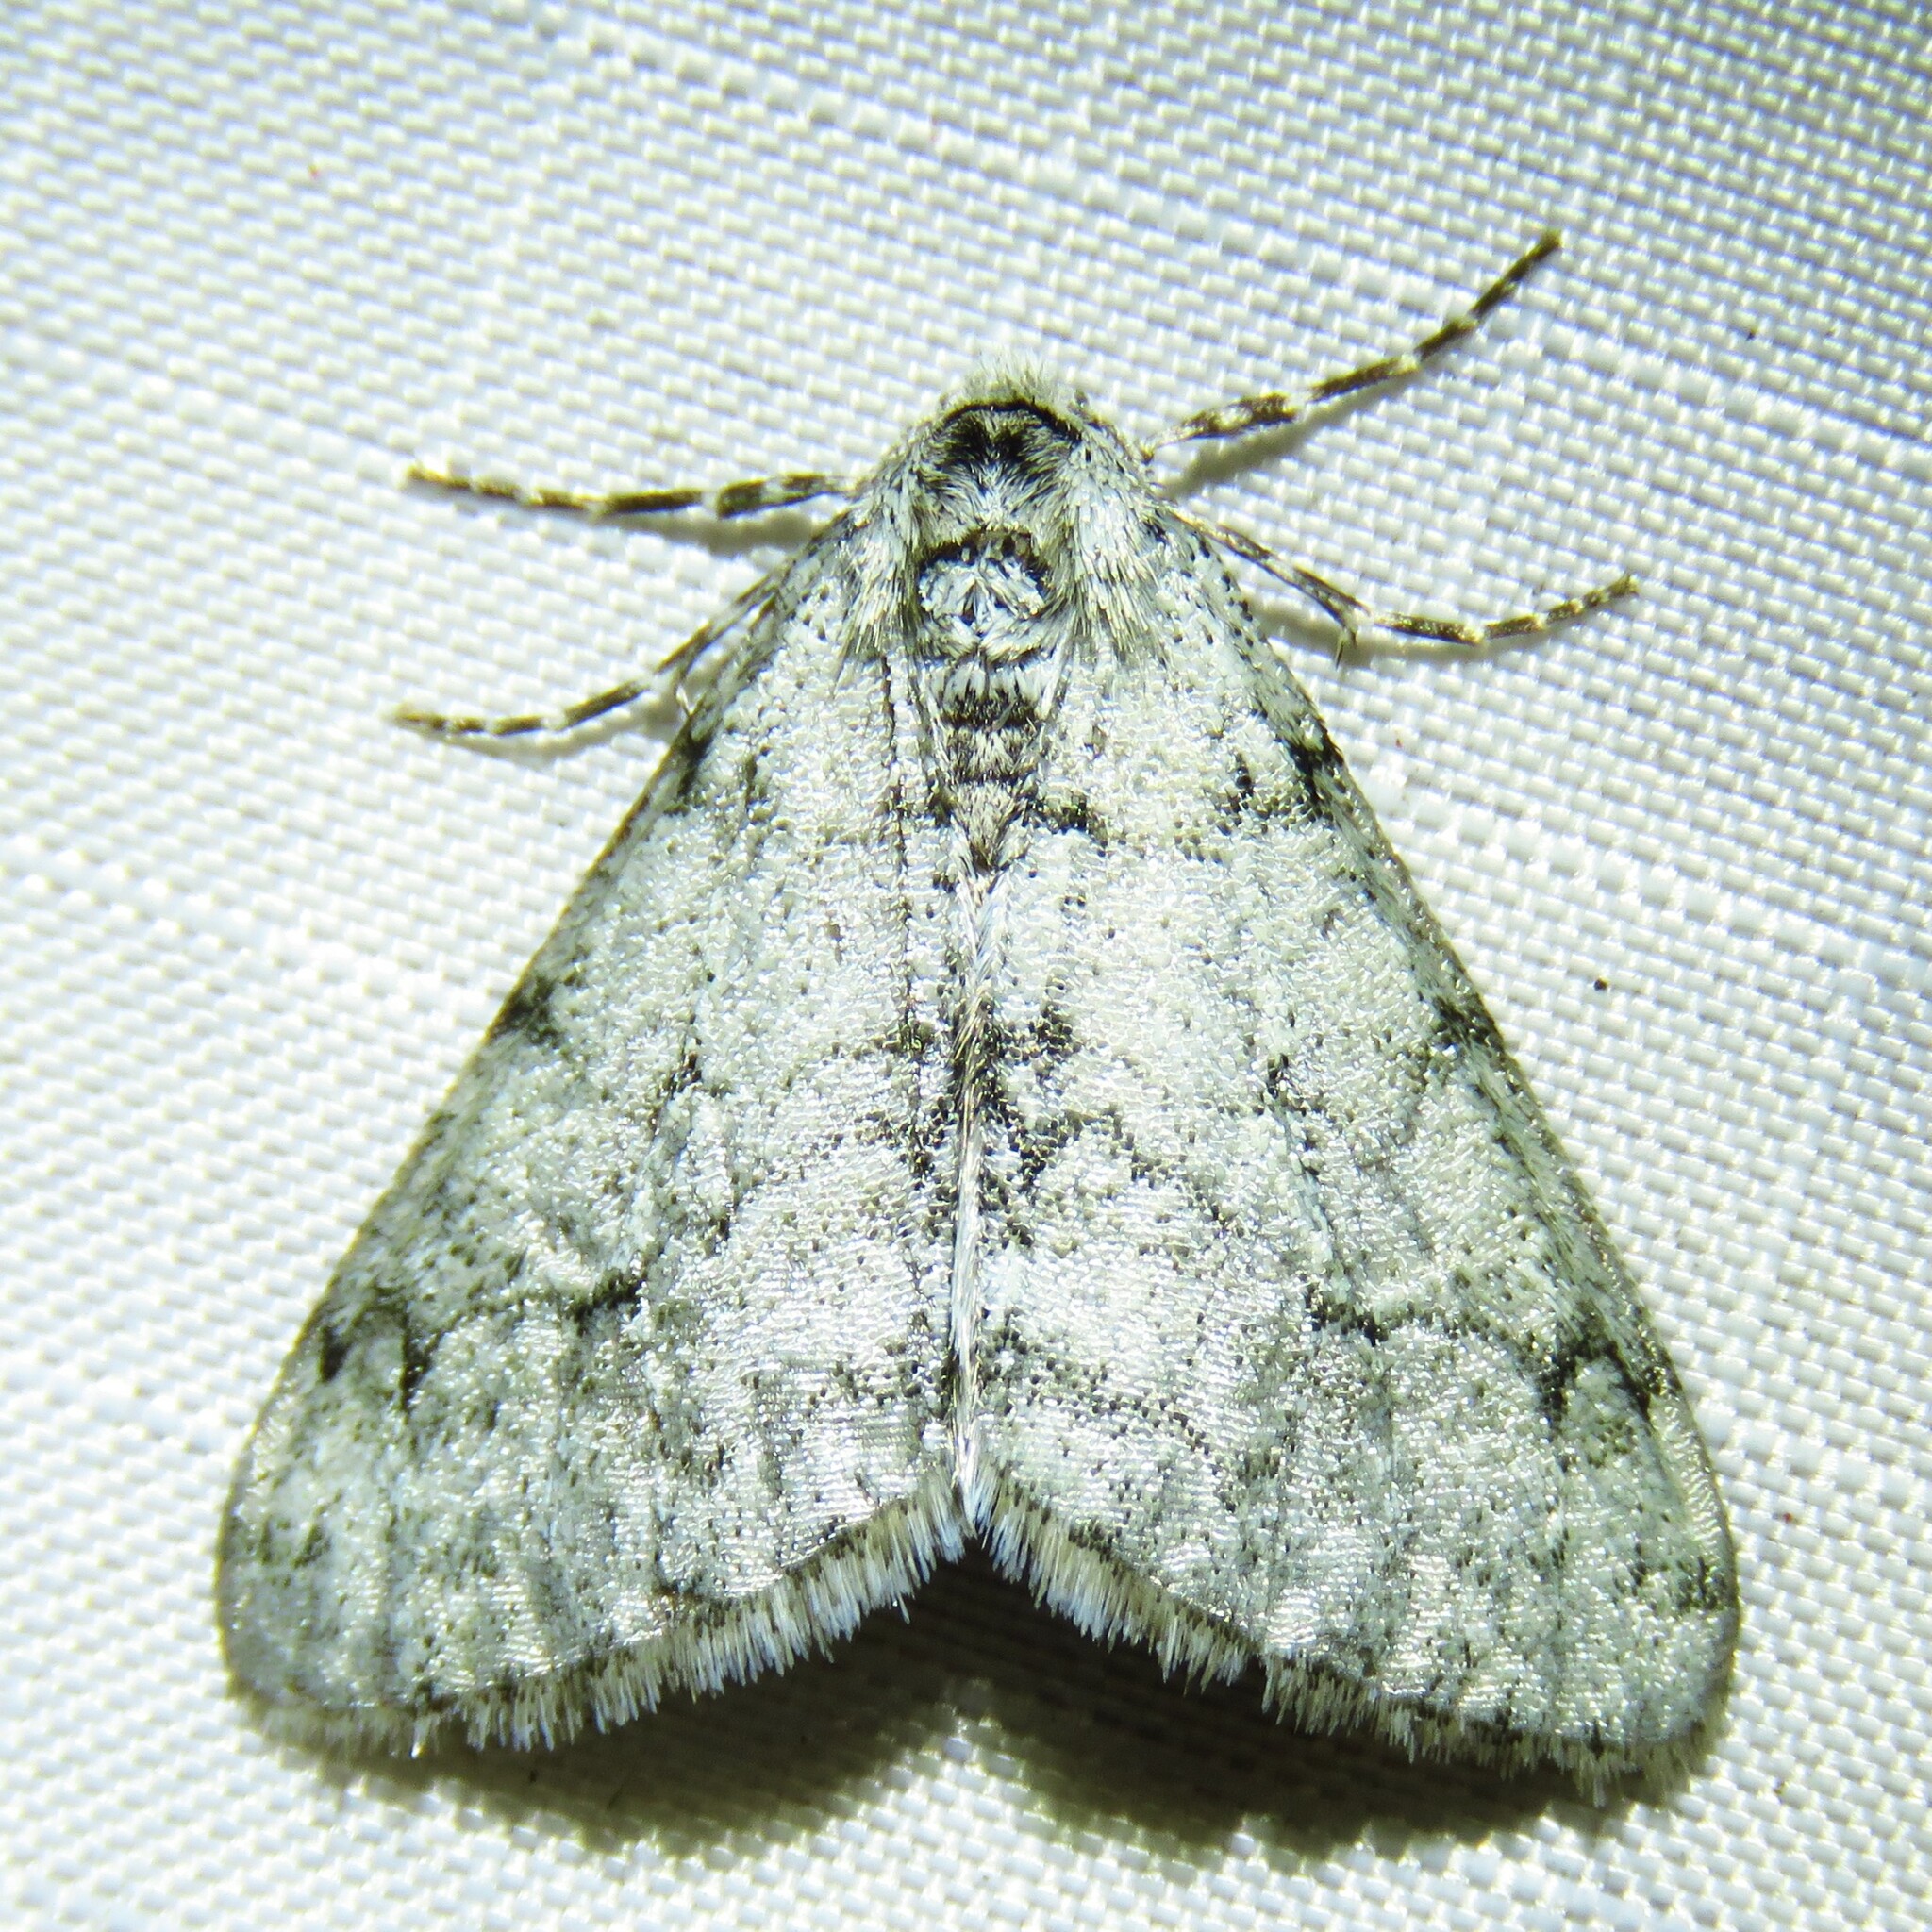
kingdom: Animalia
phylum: Arthropoda
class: Insecta
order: Lepidoptera
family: Geometridae
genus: Phigalia
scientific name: Phigalia strigataria
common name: Small phigalia
